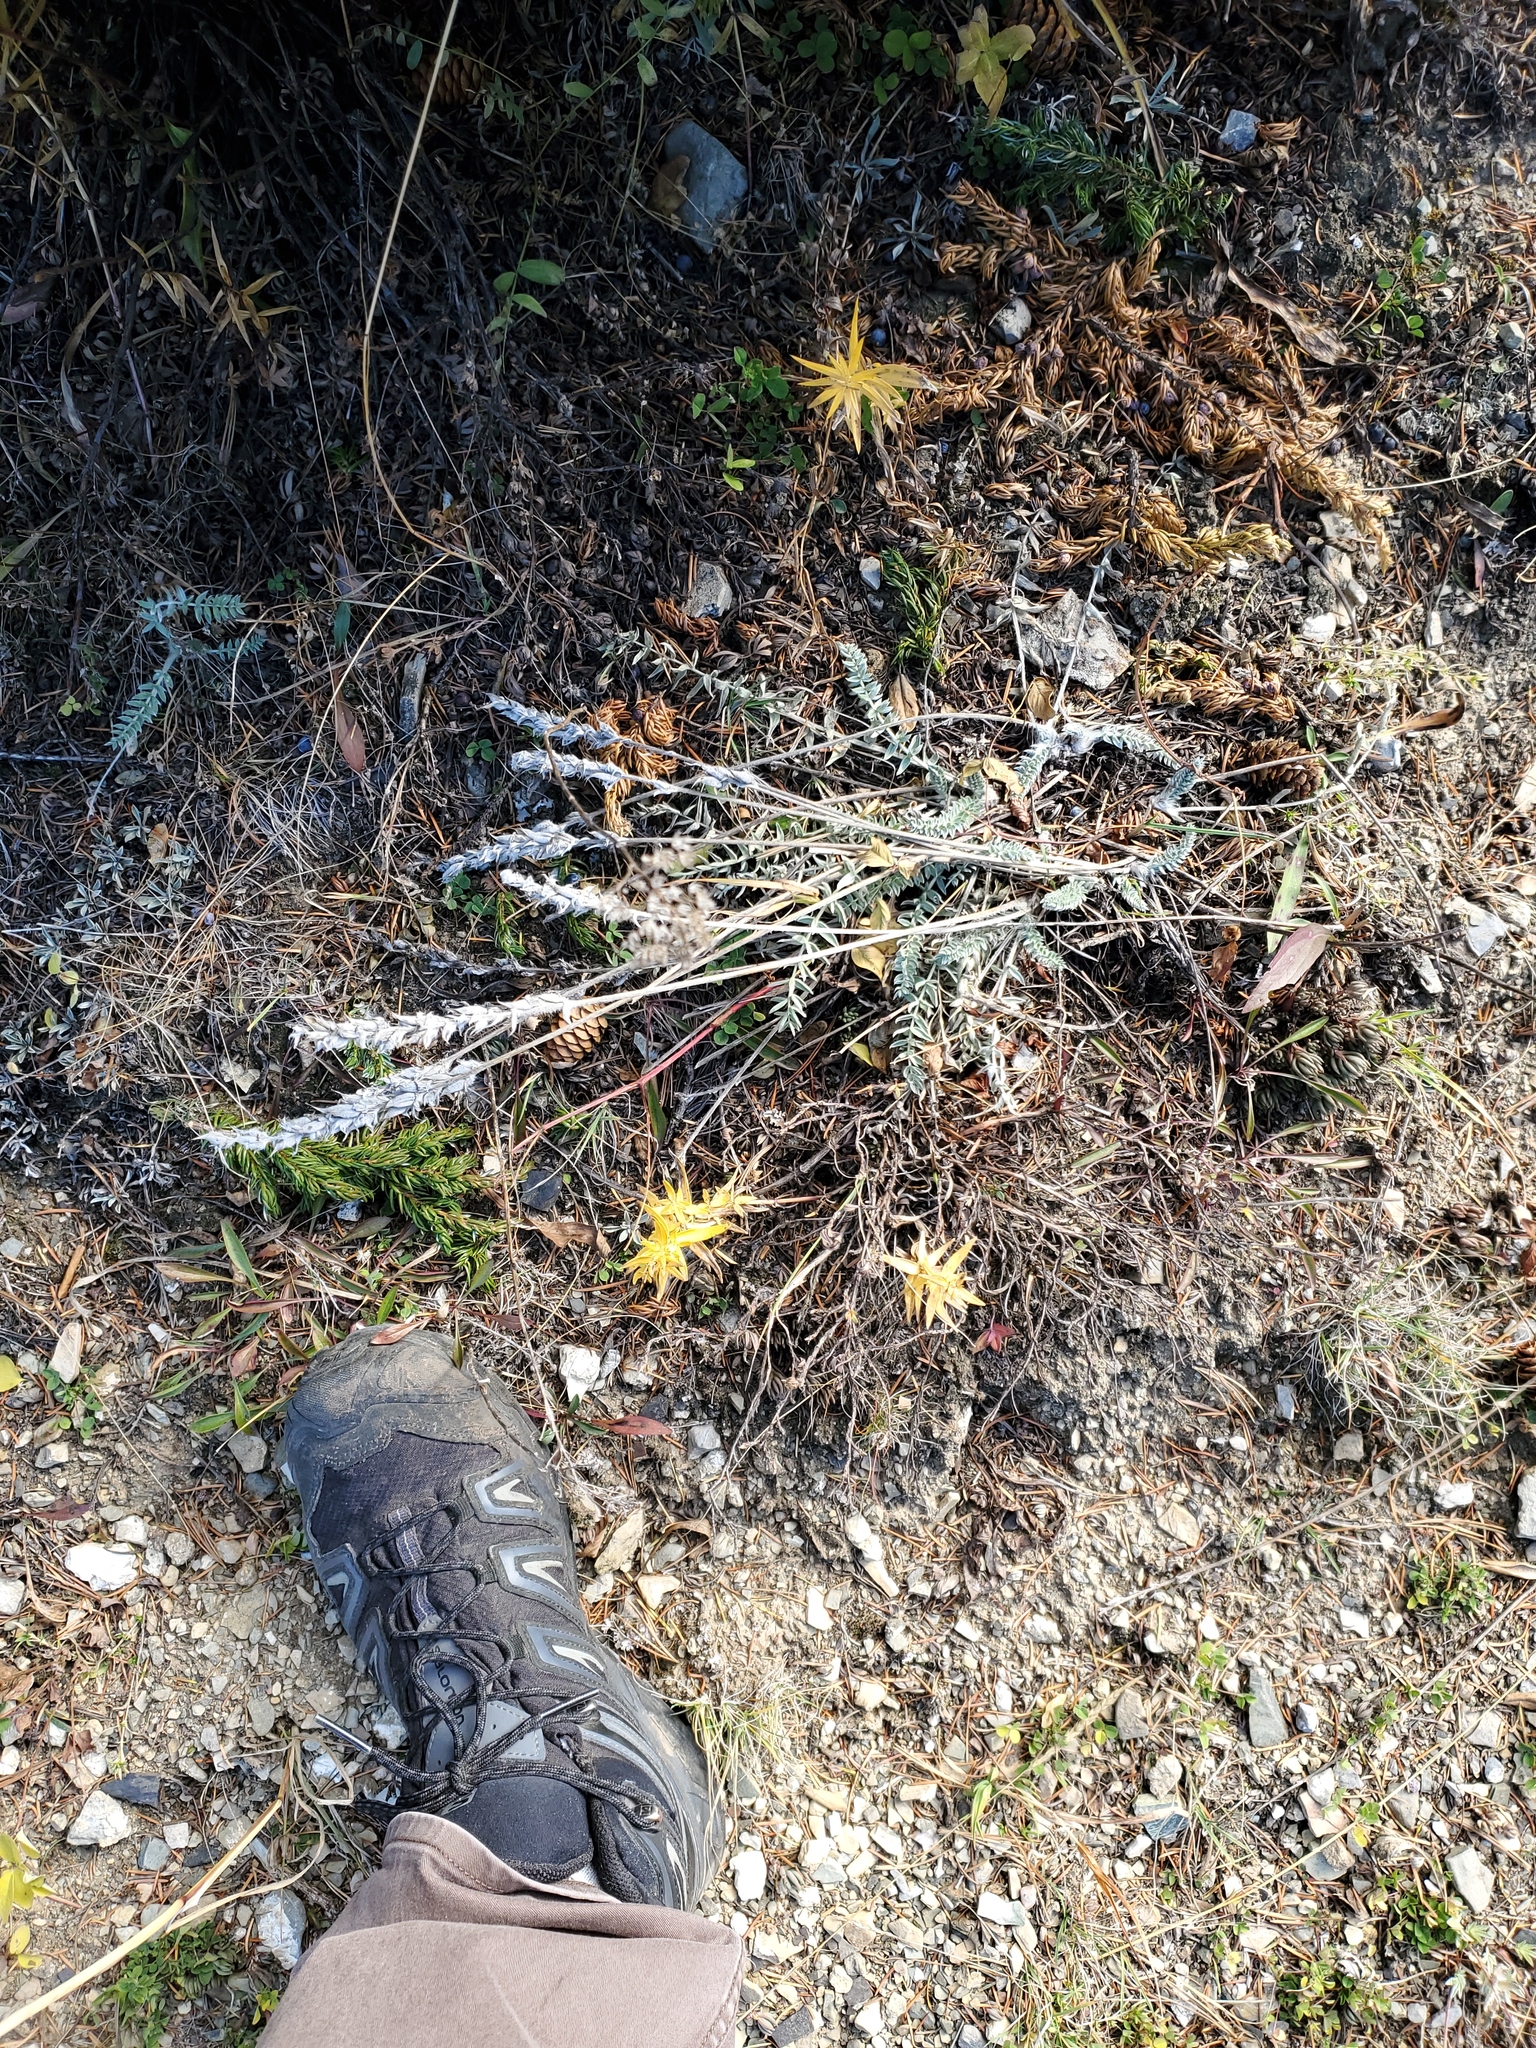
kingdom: Plantae
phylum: Tracheophyta
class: Magnoliopsida
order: Fabales
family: Fabaceae
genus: Oxytropis
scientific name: Oxytropis splendens
